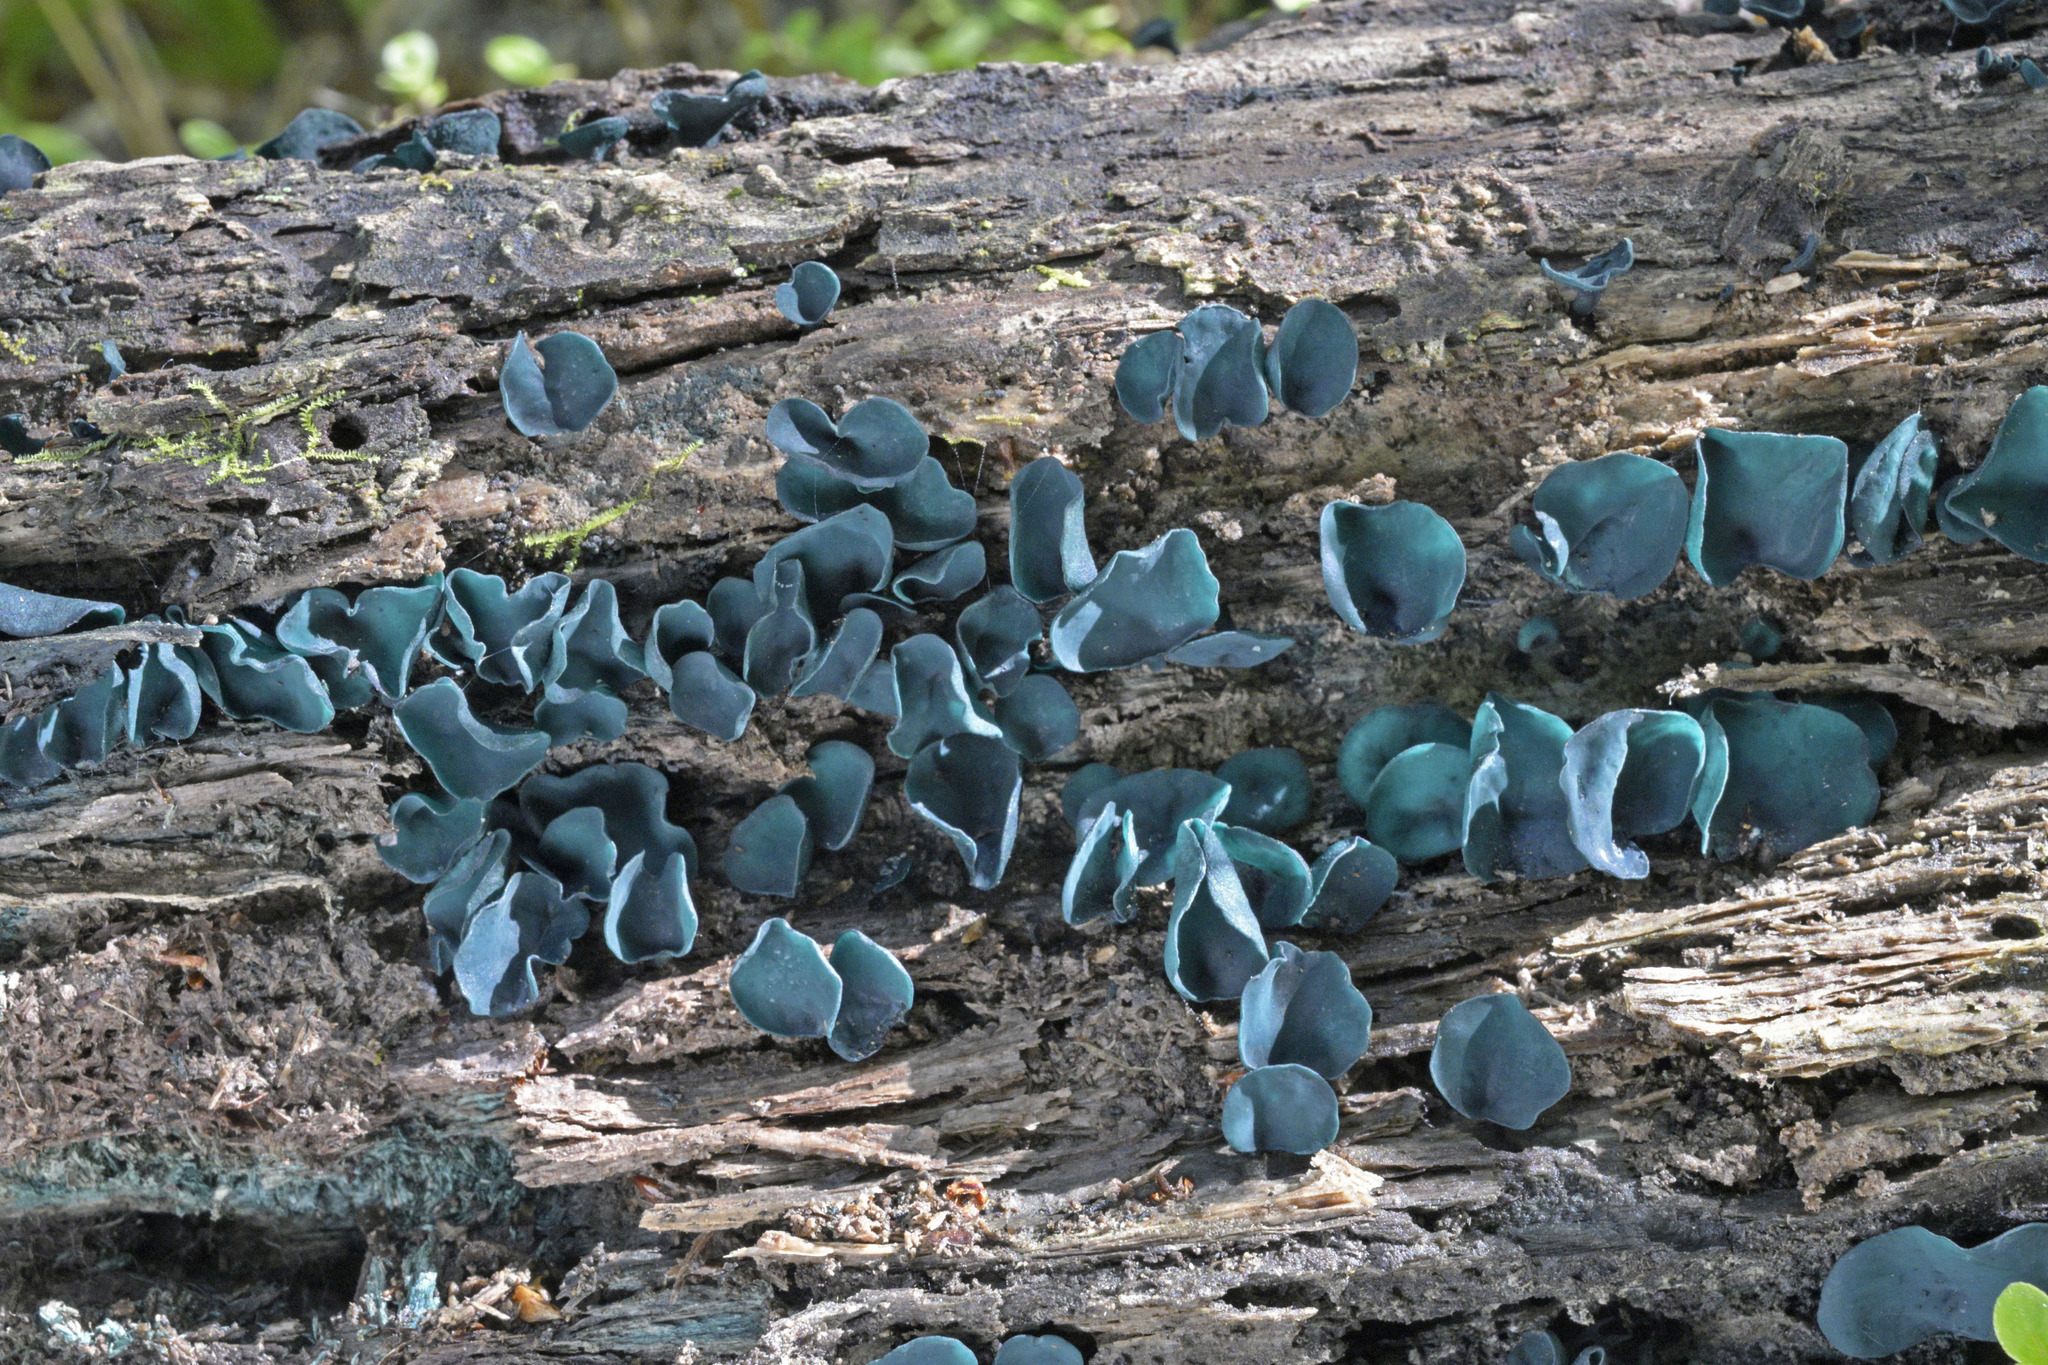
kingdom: Fungi
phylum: Ascomycota
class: Leotiomycetes
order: Helotiales
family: Chlorociboriaceae
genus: Chlorociboria
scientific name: Chlorociboria novae-zelandiae
